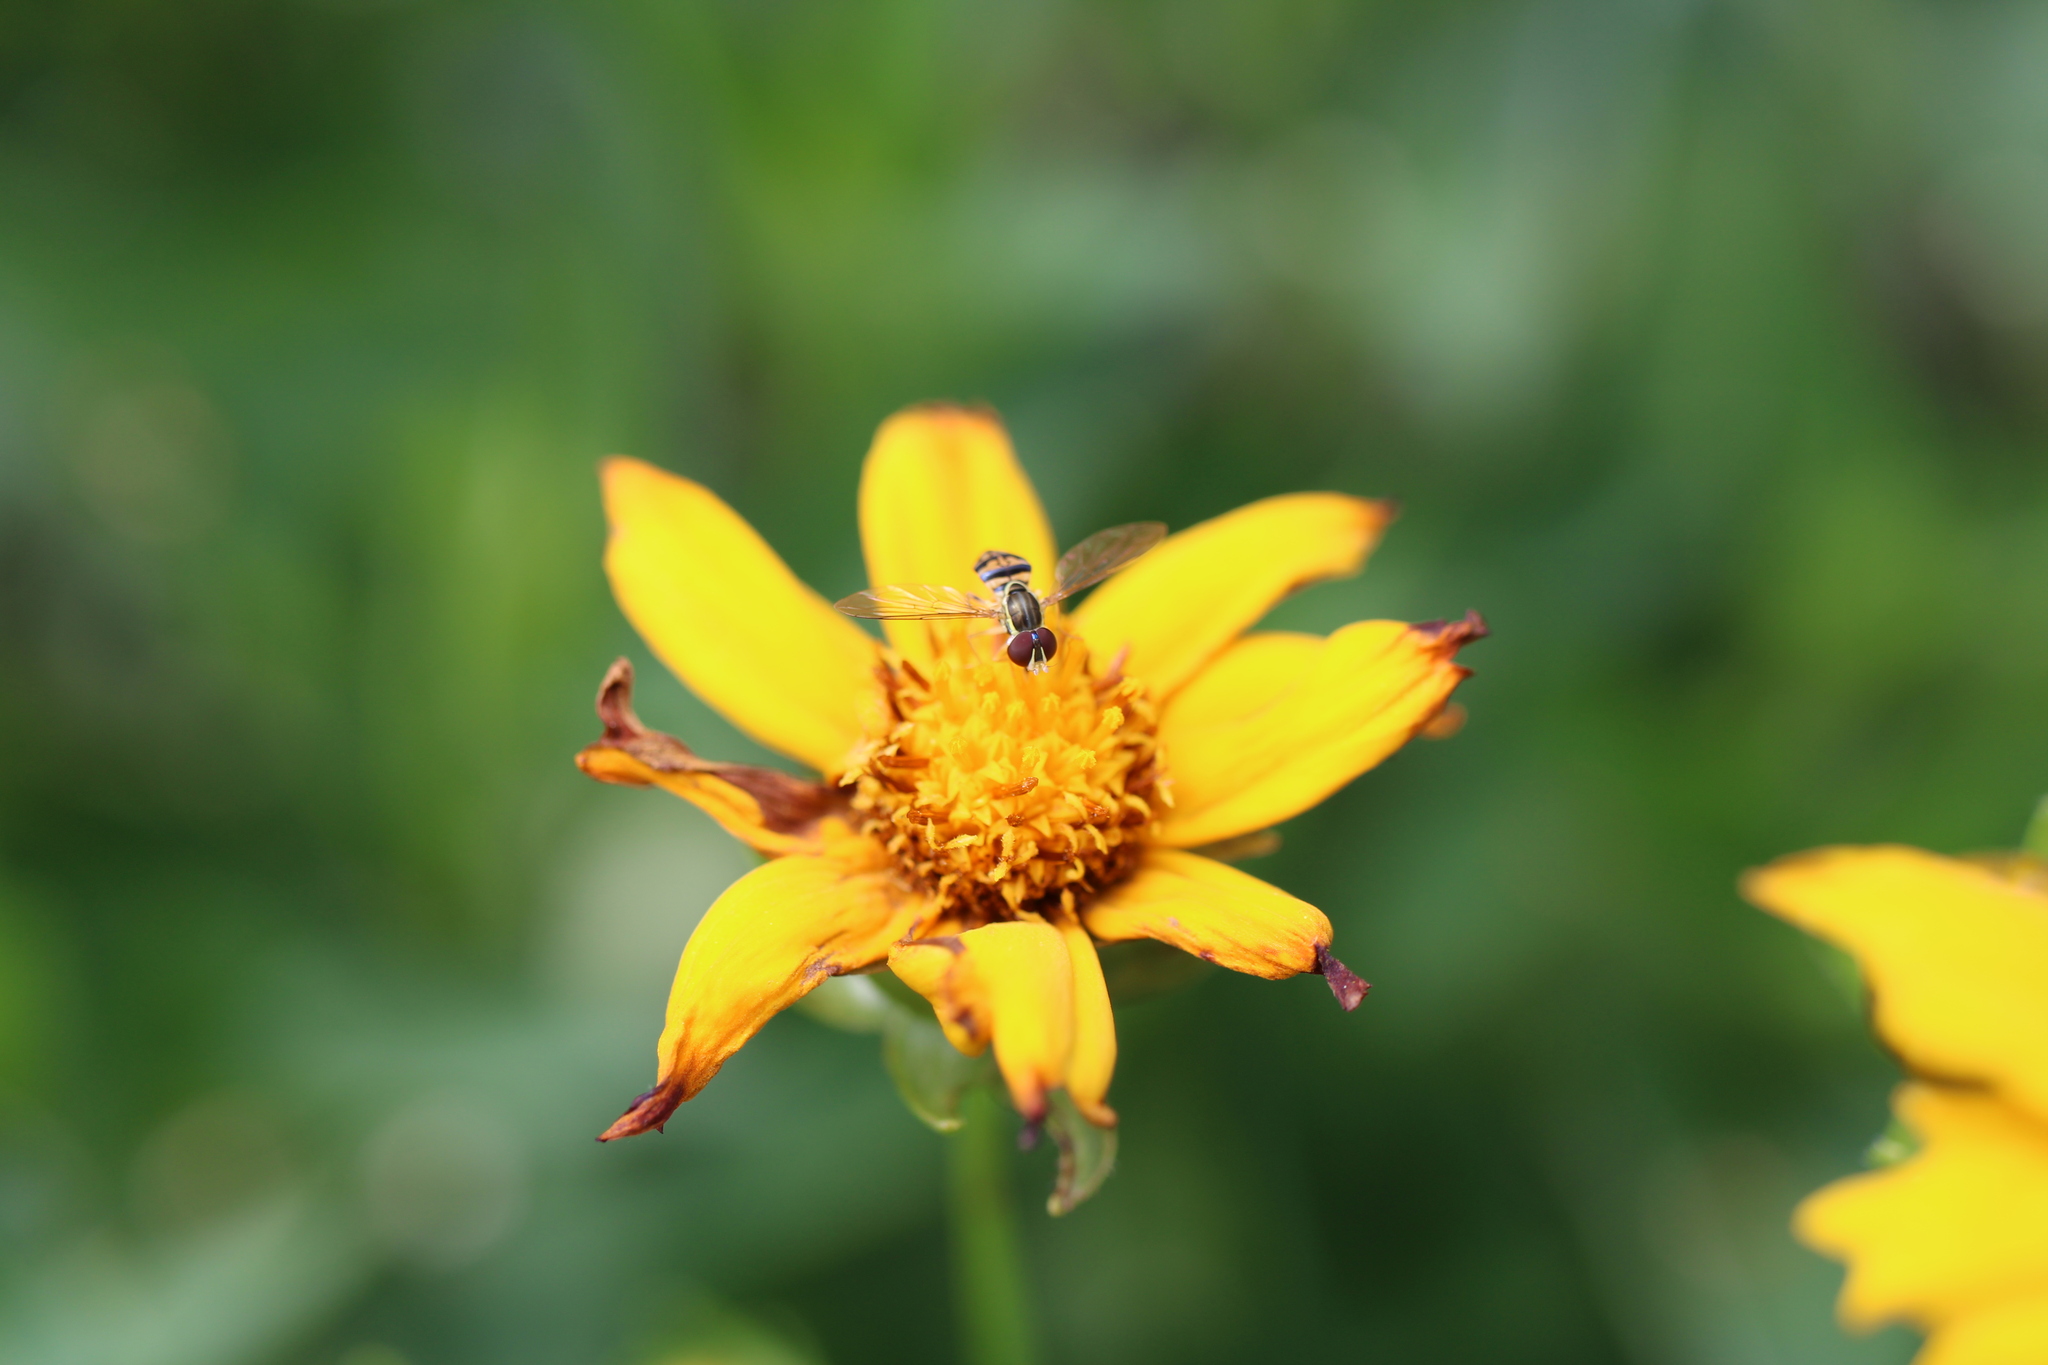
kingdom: Animalia
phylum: Arthropoda
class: Insecta
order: Diptera
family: Syrphidae
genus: Toxomerus
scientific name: Toxomerus geminatus
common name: Eastern calligrapher
